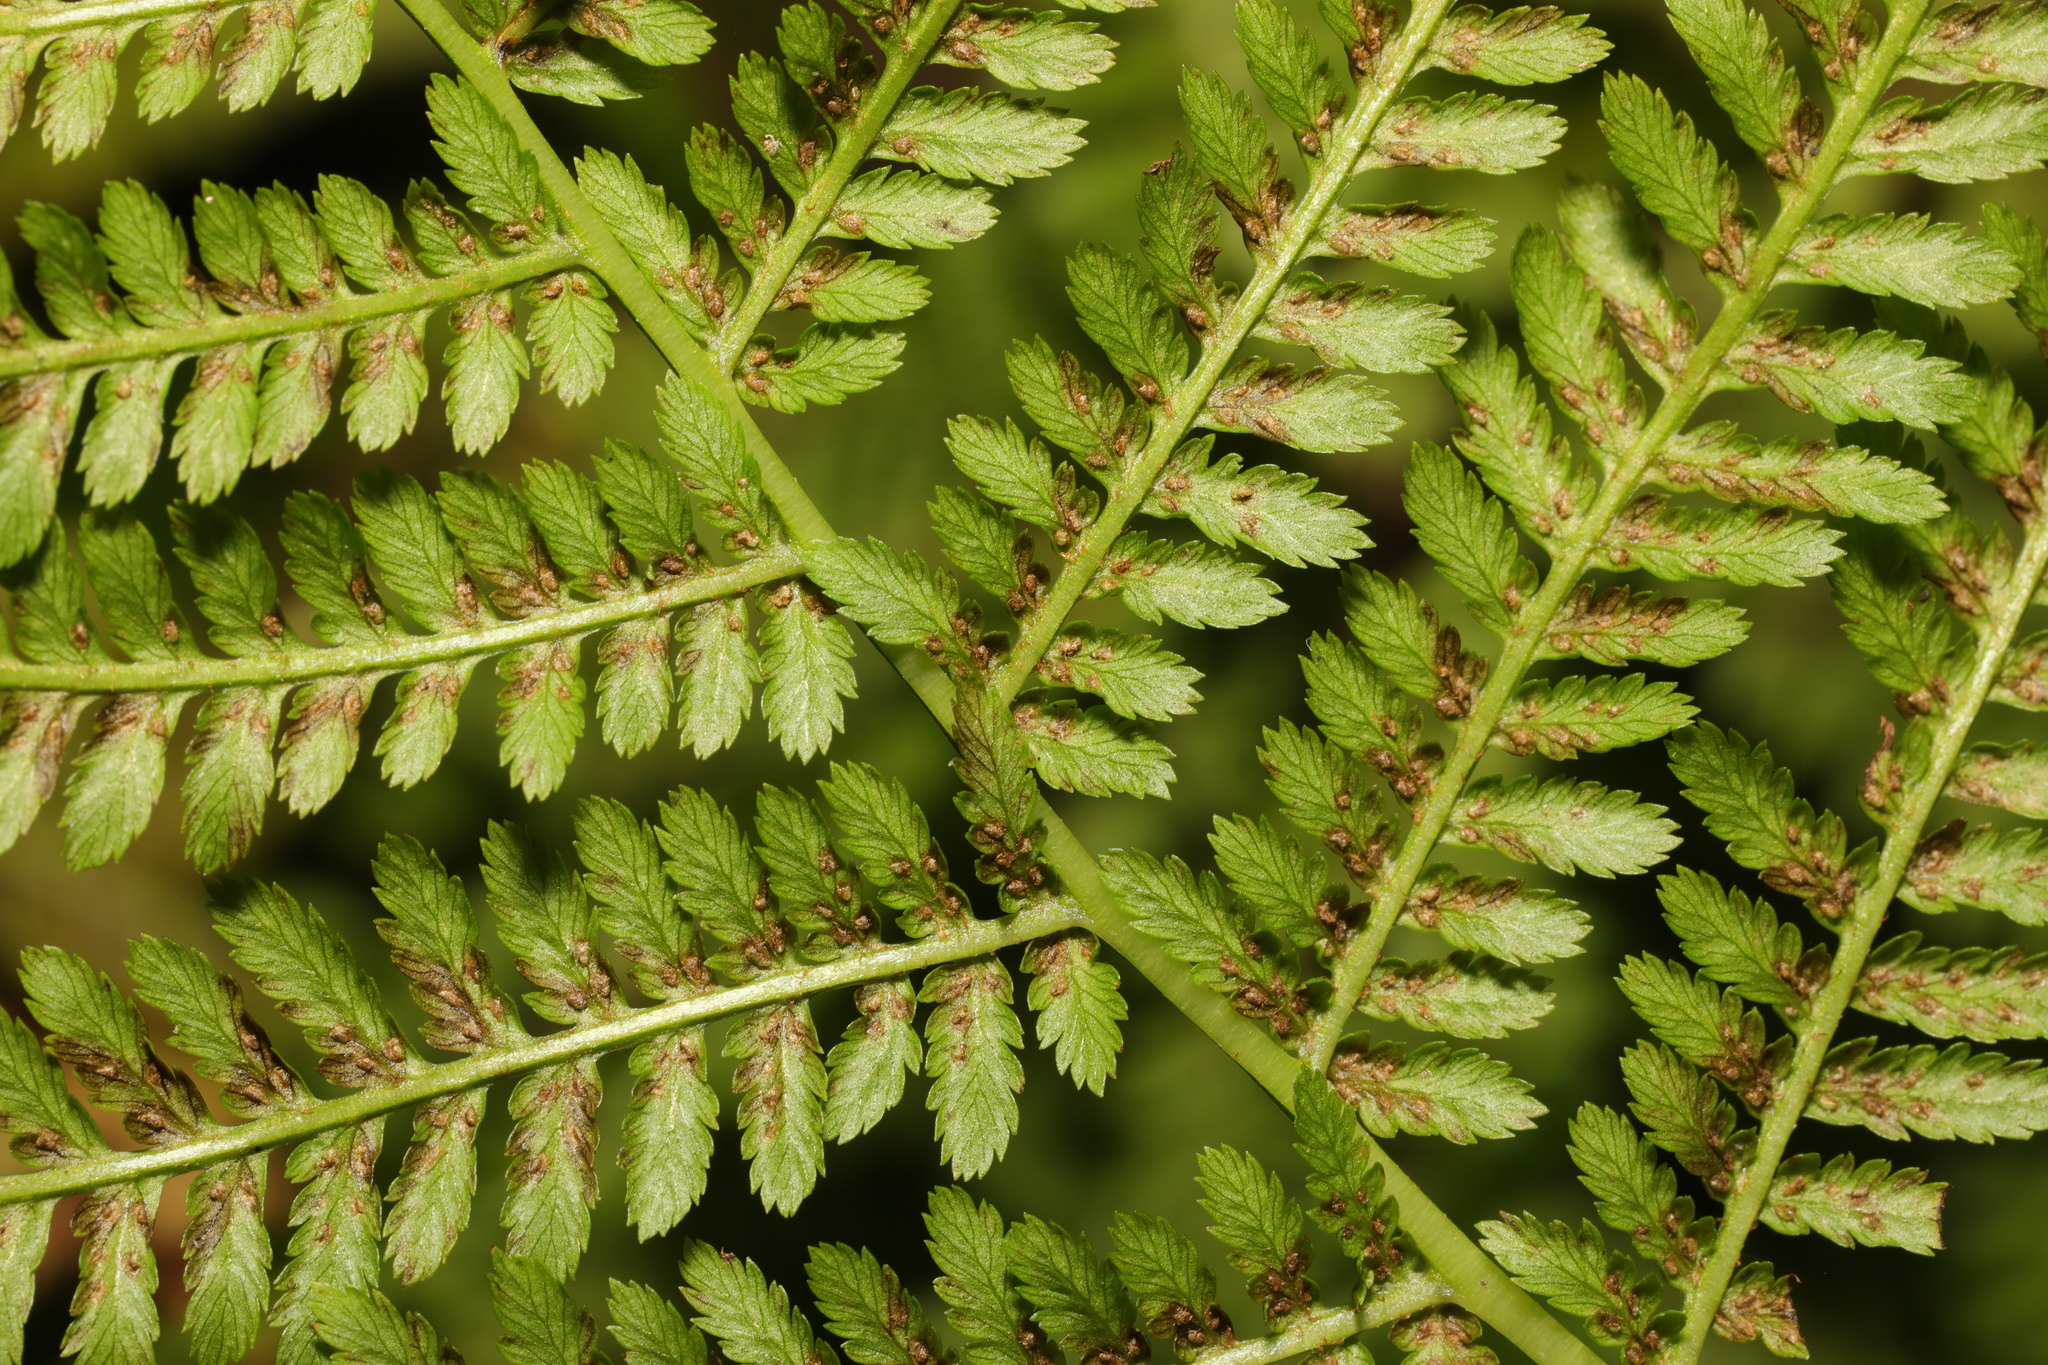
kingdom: Plantae
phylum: Tracheophyta
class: Polypodiopsida
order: Polypodiales
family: Athyriaceae
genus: Athyrium
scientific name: Athyrium filix-femina
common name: Lady fern
